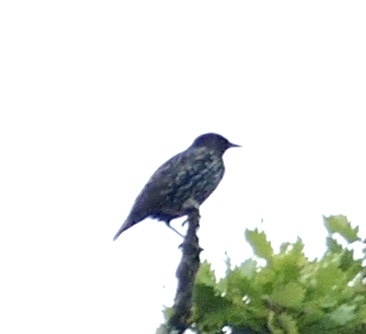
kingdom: Animalia
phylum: Chordata
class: Aves
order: Passeriformes
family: Sturnidae
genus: Sturnus
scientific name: Sturnus vulgaris
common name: Common starling
